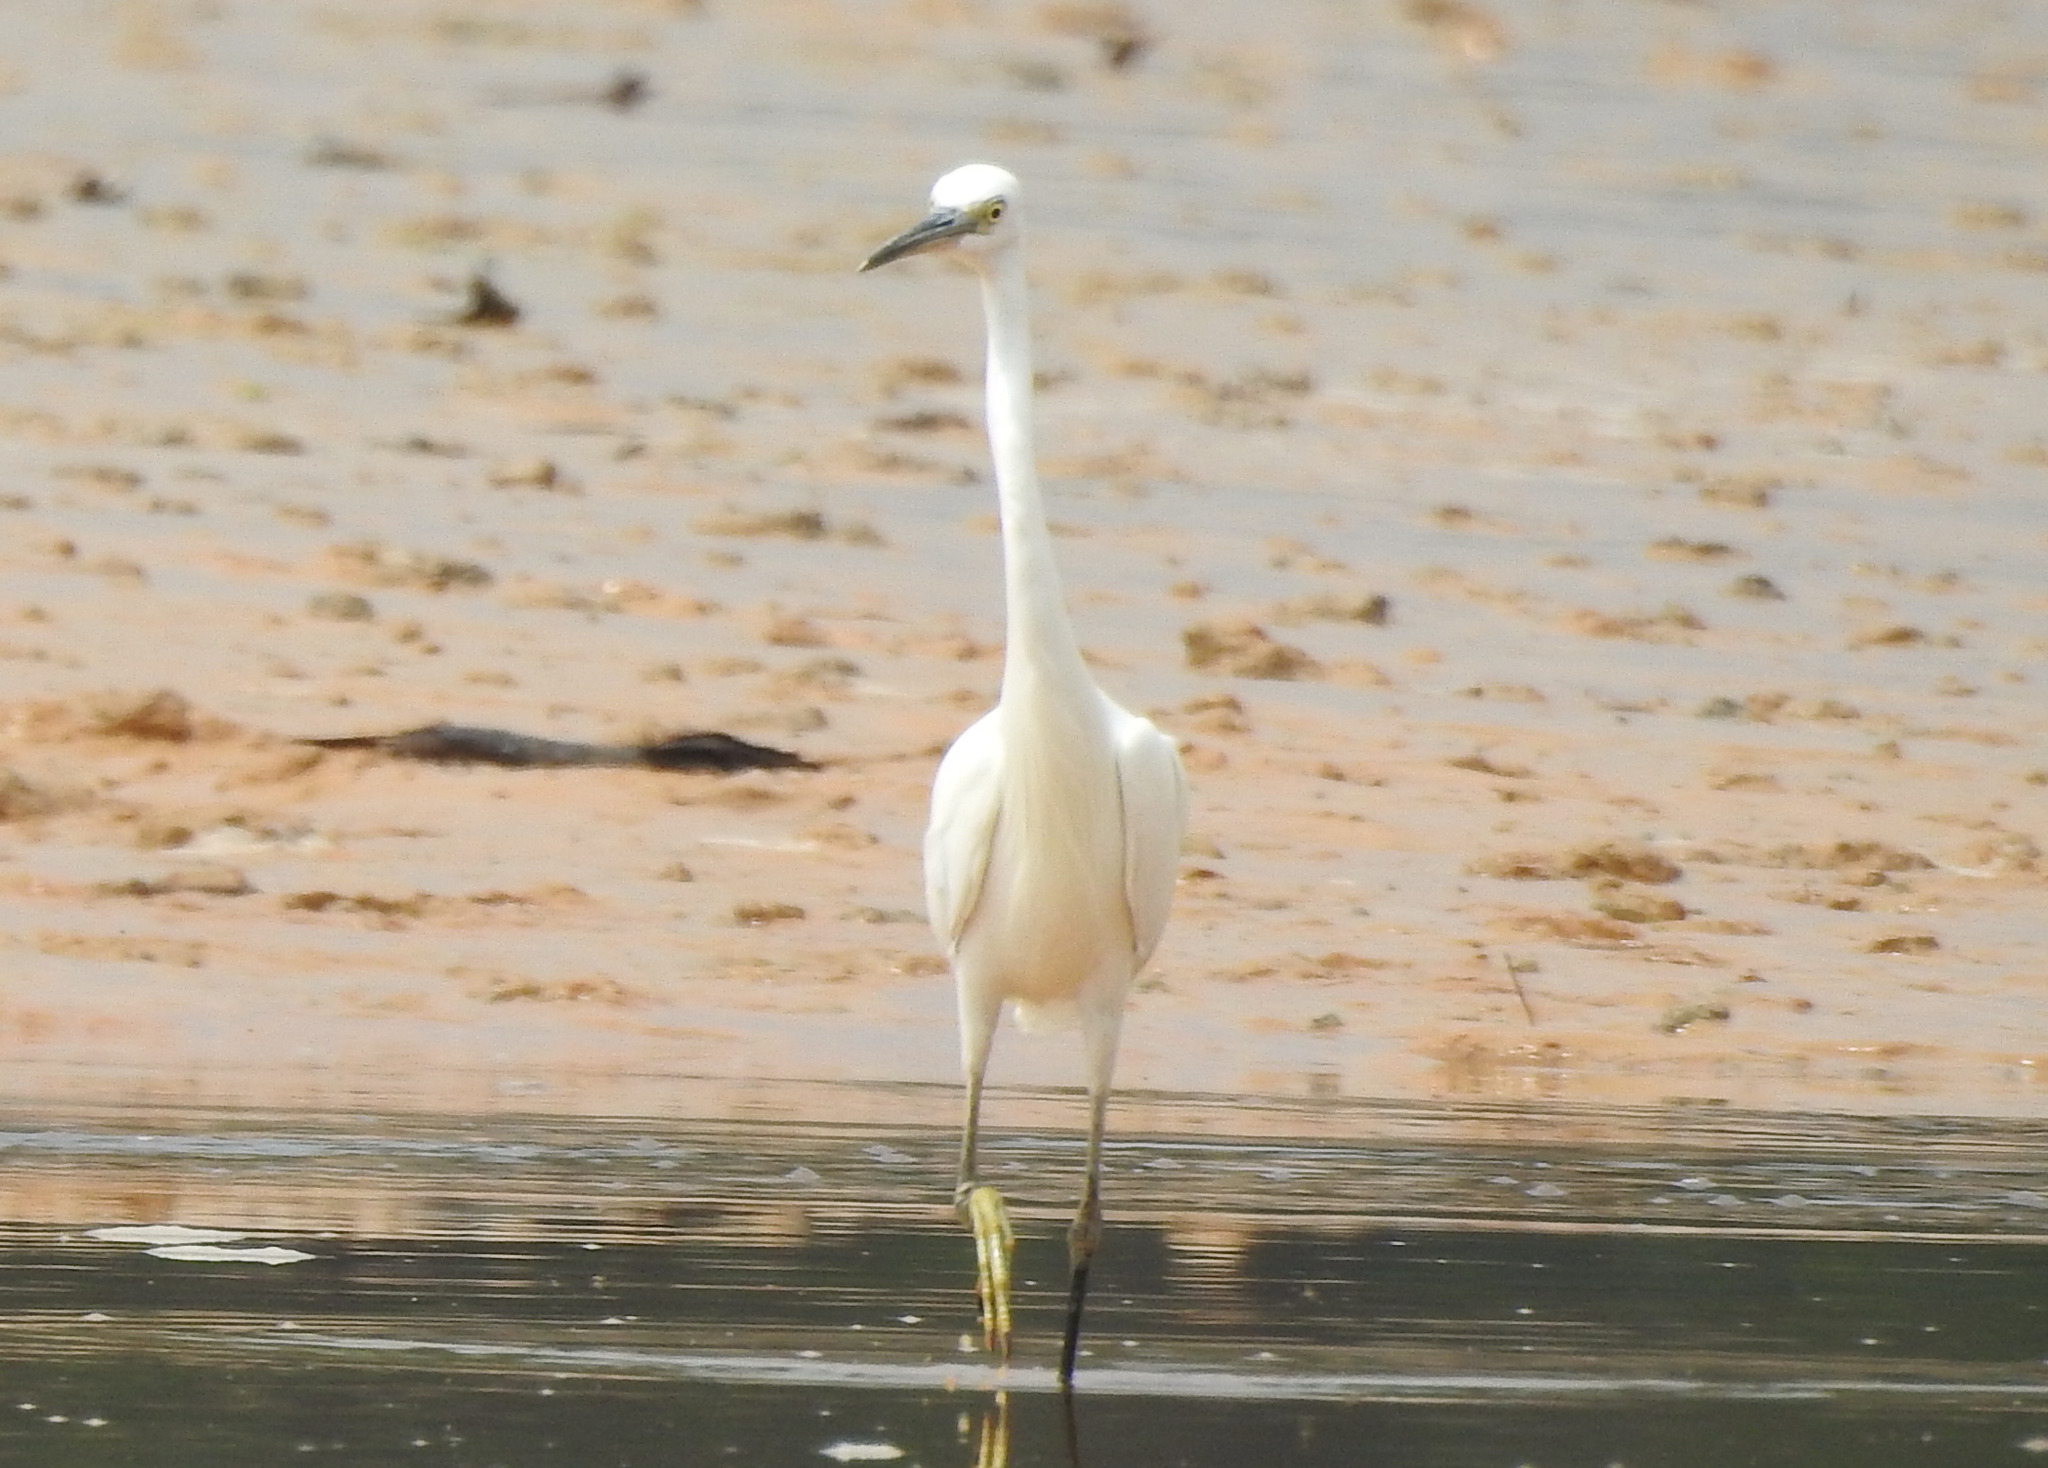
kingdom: Animalia
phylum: Chordata
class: Aves
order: Pelecaniformes
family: Ardeidae
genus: Egretta
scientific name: Egretta garzetta
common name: Little egret
